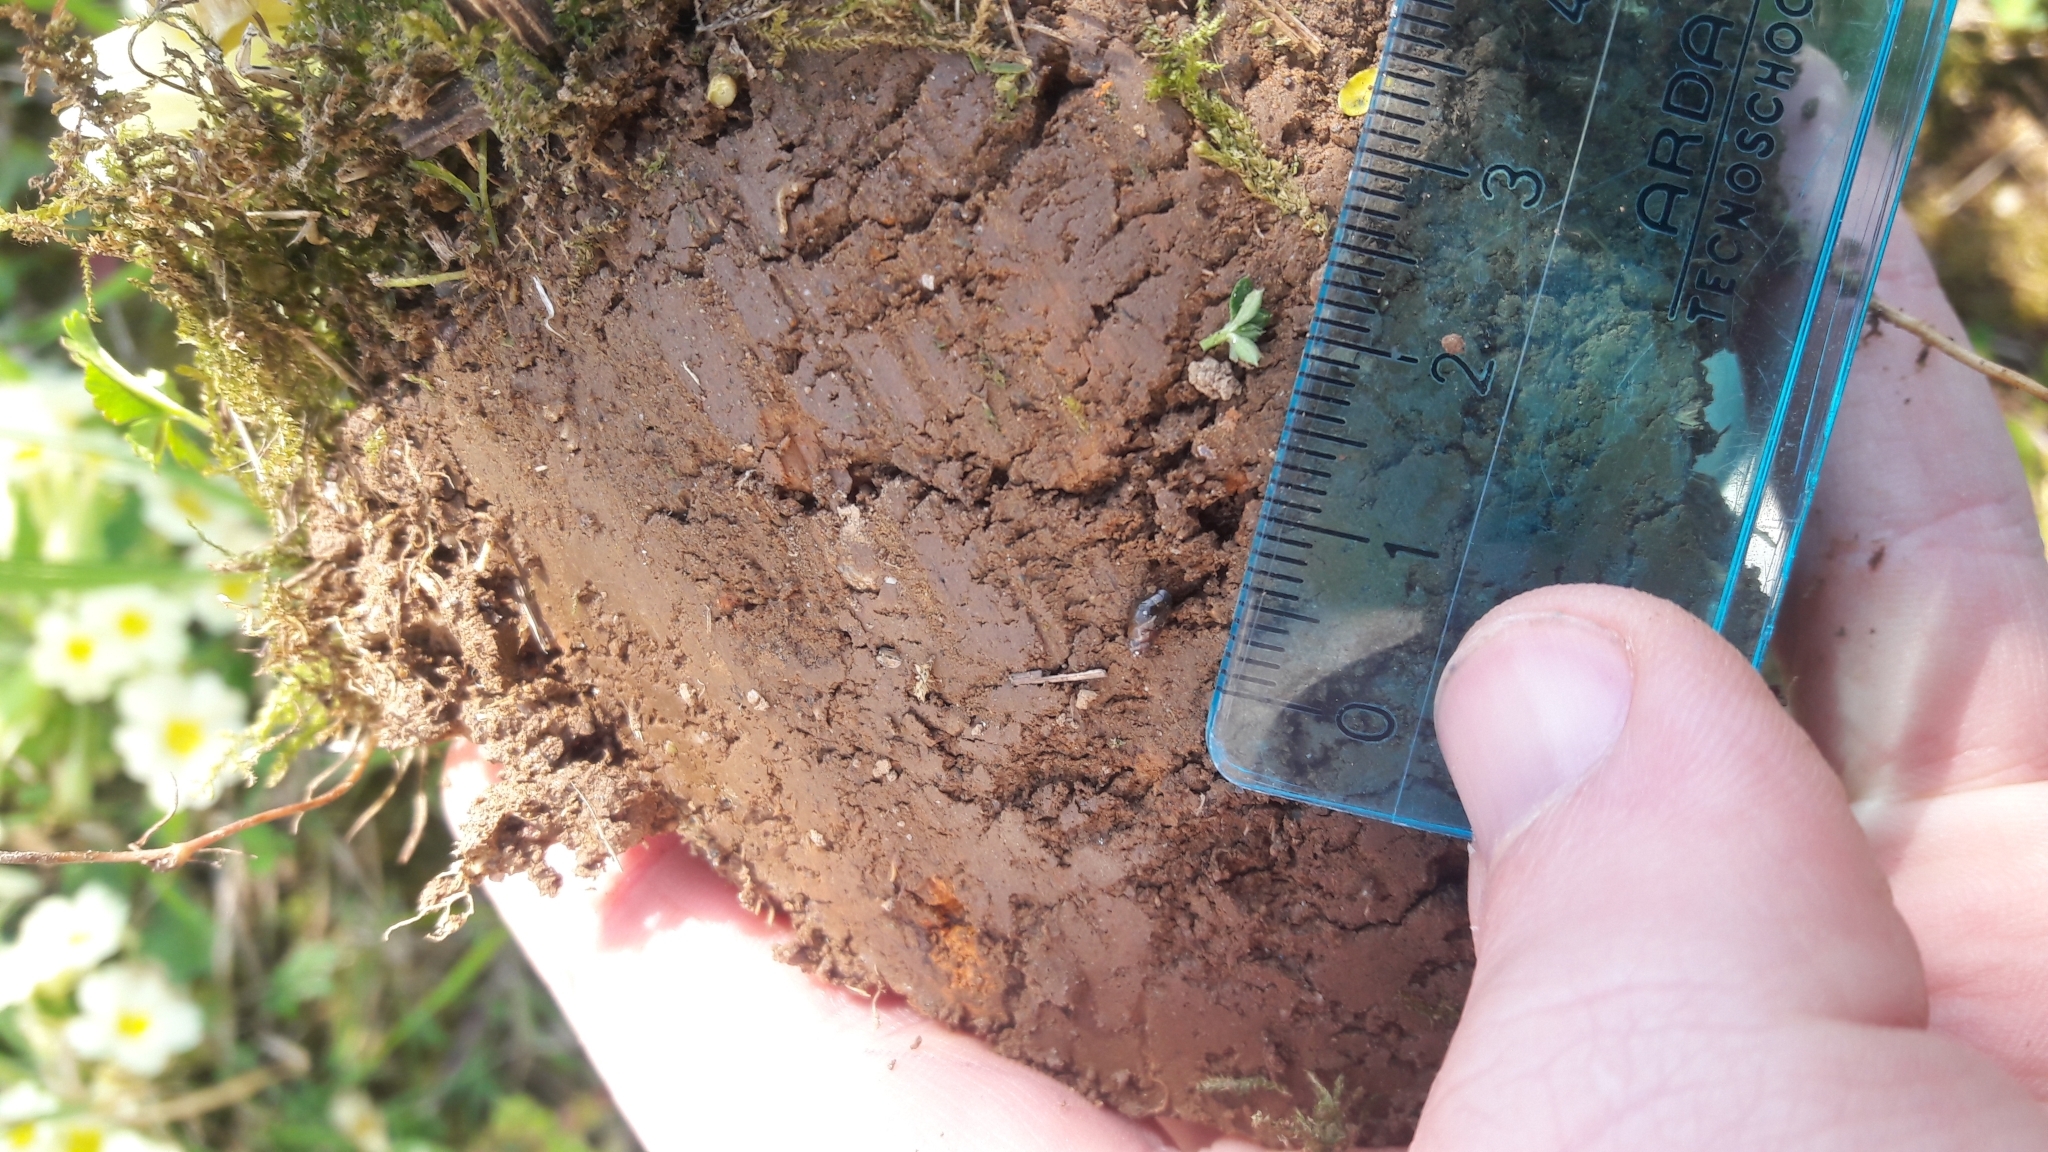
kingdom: Animalia
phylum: Mollusca
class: Gastropoda
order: Stylommatophora
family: Cochlicopidae
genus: Cochlicopa
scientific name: Cochlicopa lubrica
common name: Glossy pillar snail
